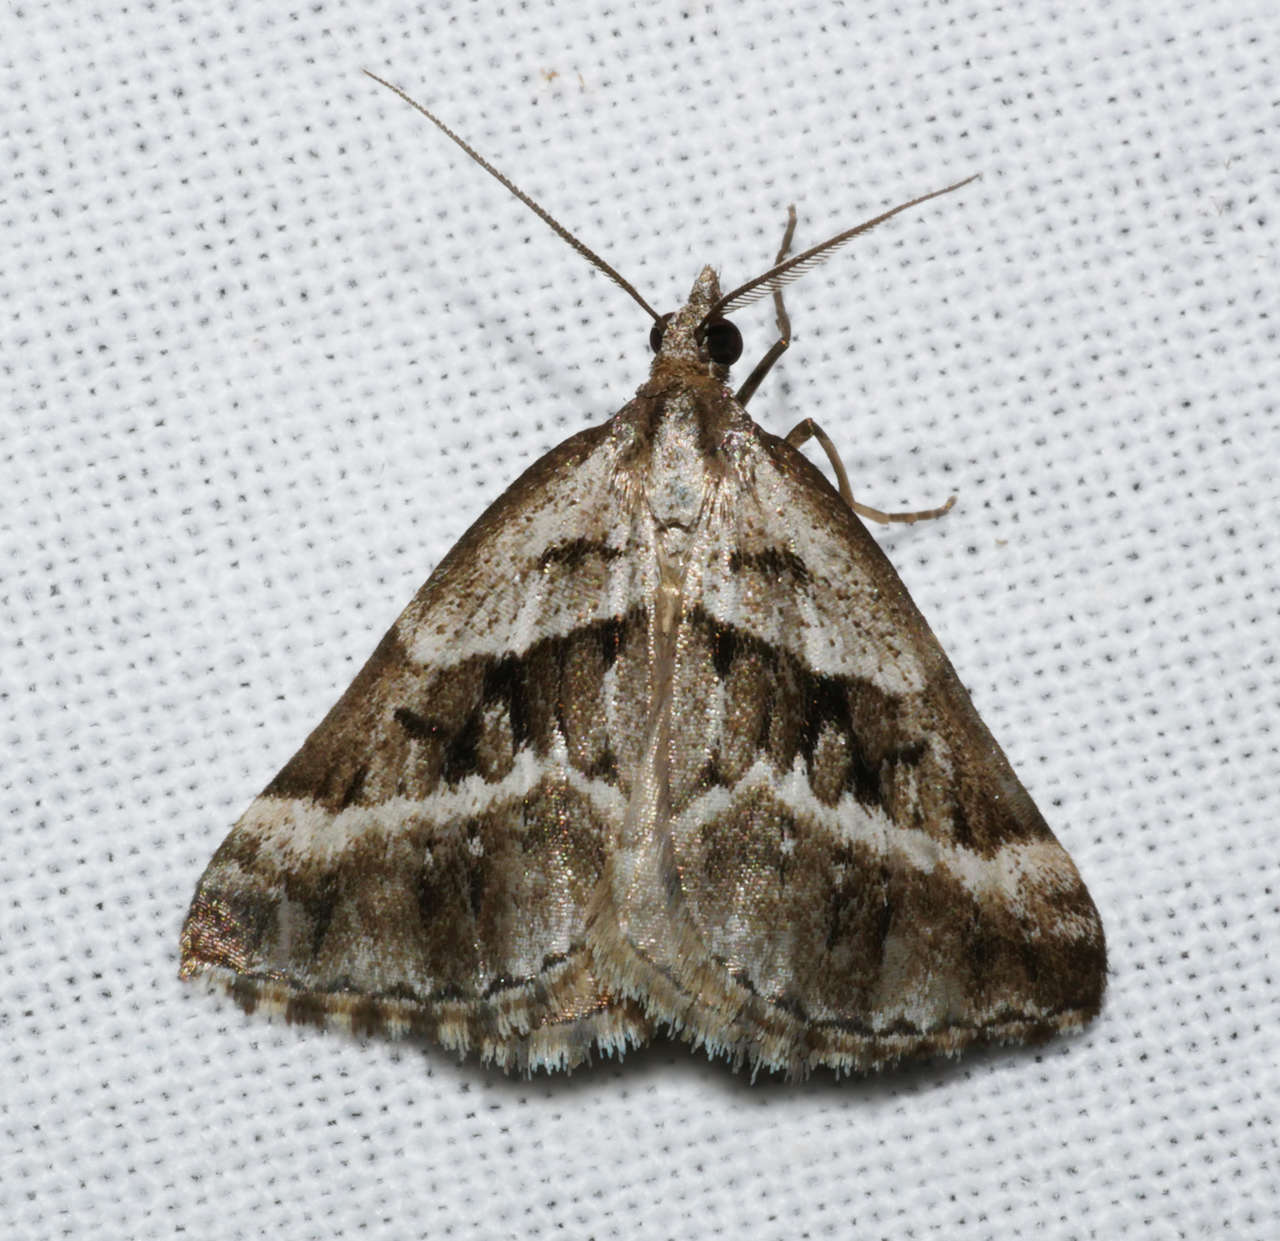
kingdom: Animalia
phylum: Arthropoda
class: Insecta
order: Lepidoptera
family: Geometridae
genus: Dichromodes
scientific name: Dichromodes stilbiata
